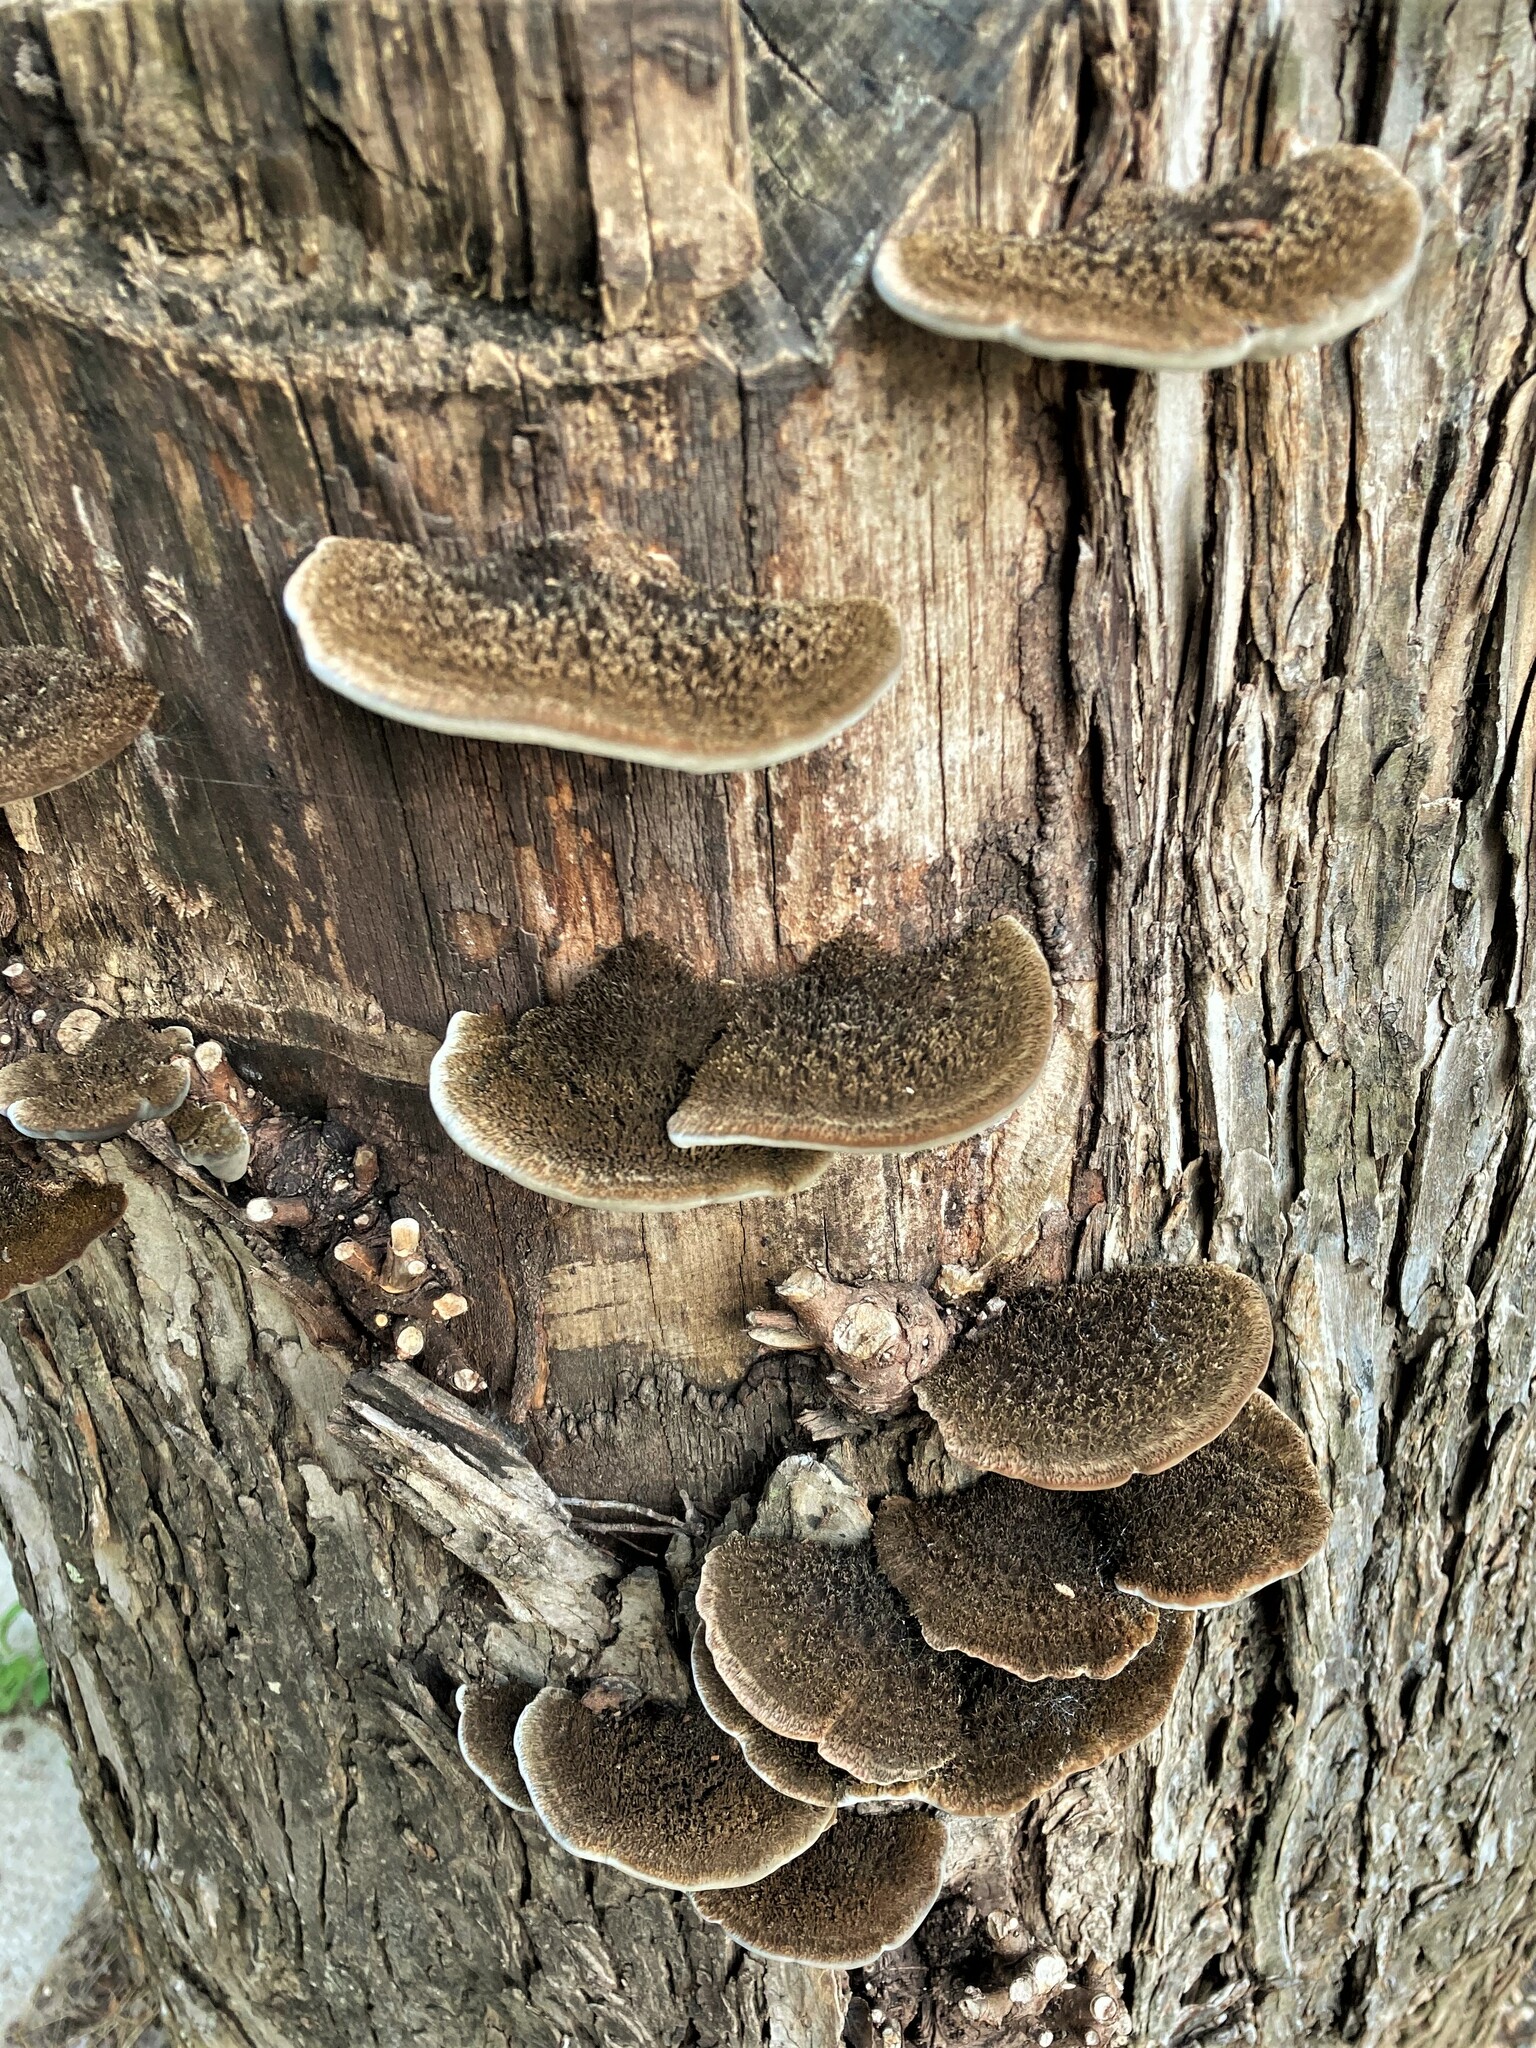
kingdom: Fungi
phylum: Basidiomycota
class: Agaricomycetes
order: Polyporales
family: Cerrenaceae
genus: Cerrena
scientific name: Cerrena hydnoides
